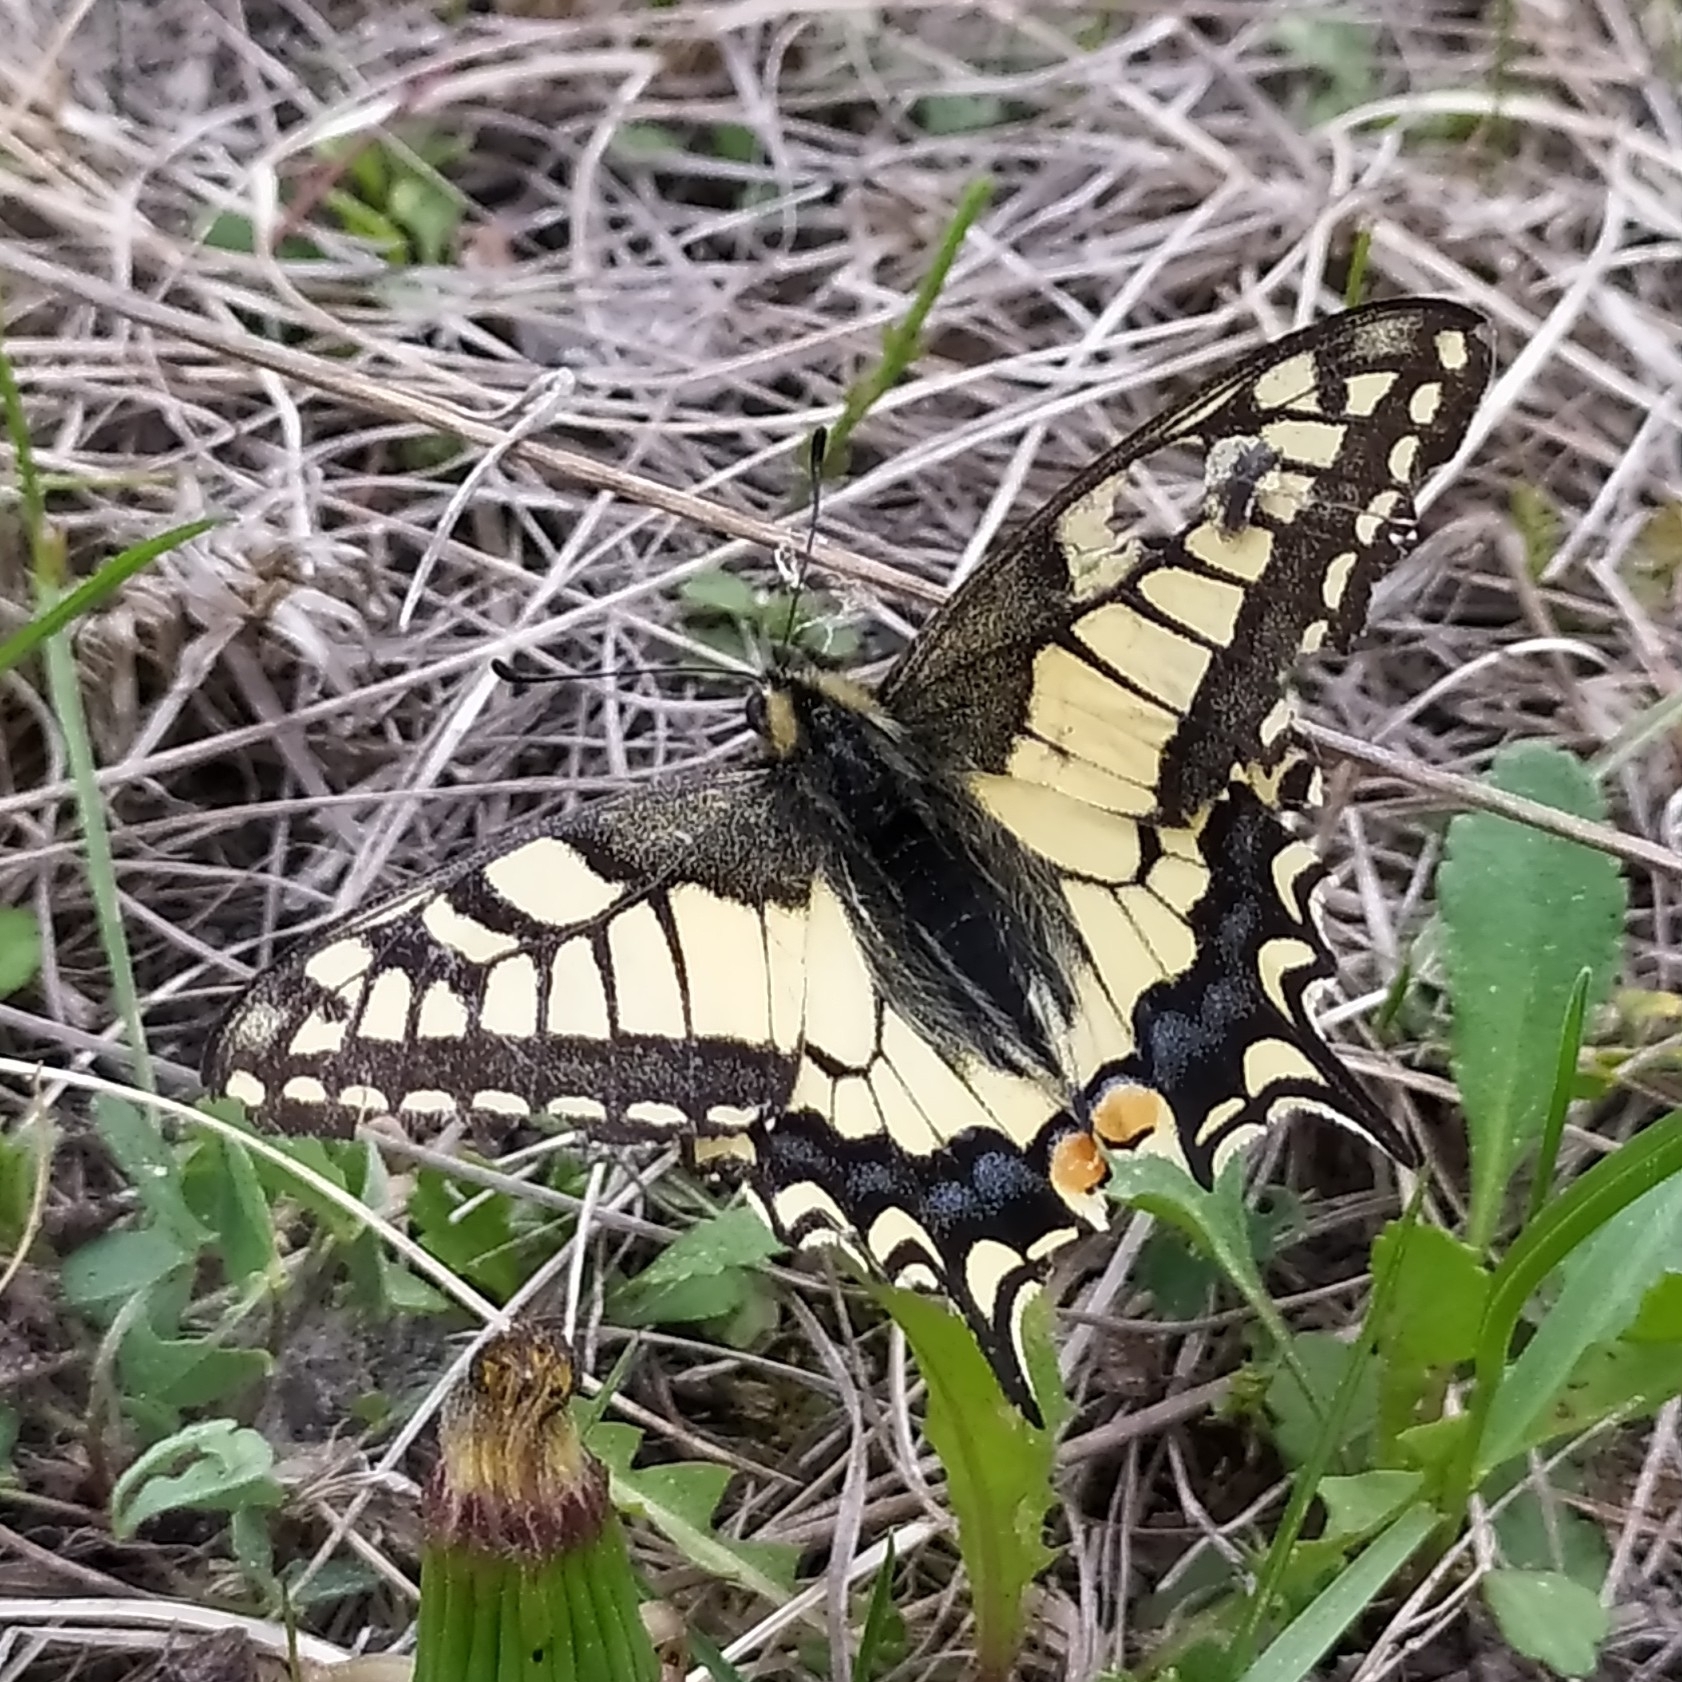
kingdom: Animalia
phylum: Arthropoda
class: Insecta
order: Lepidoptera
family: Papilionidae
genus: Papilio
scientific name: Papilio machaon
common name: Swallowtail
